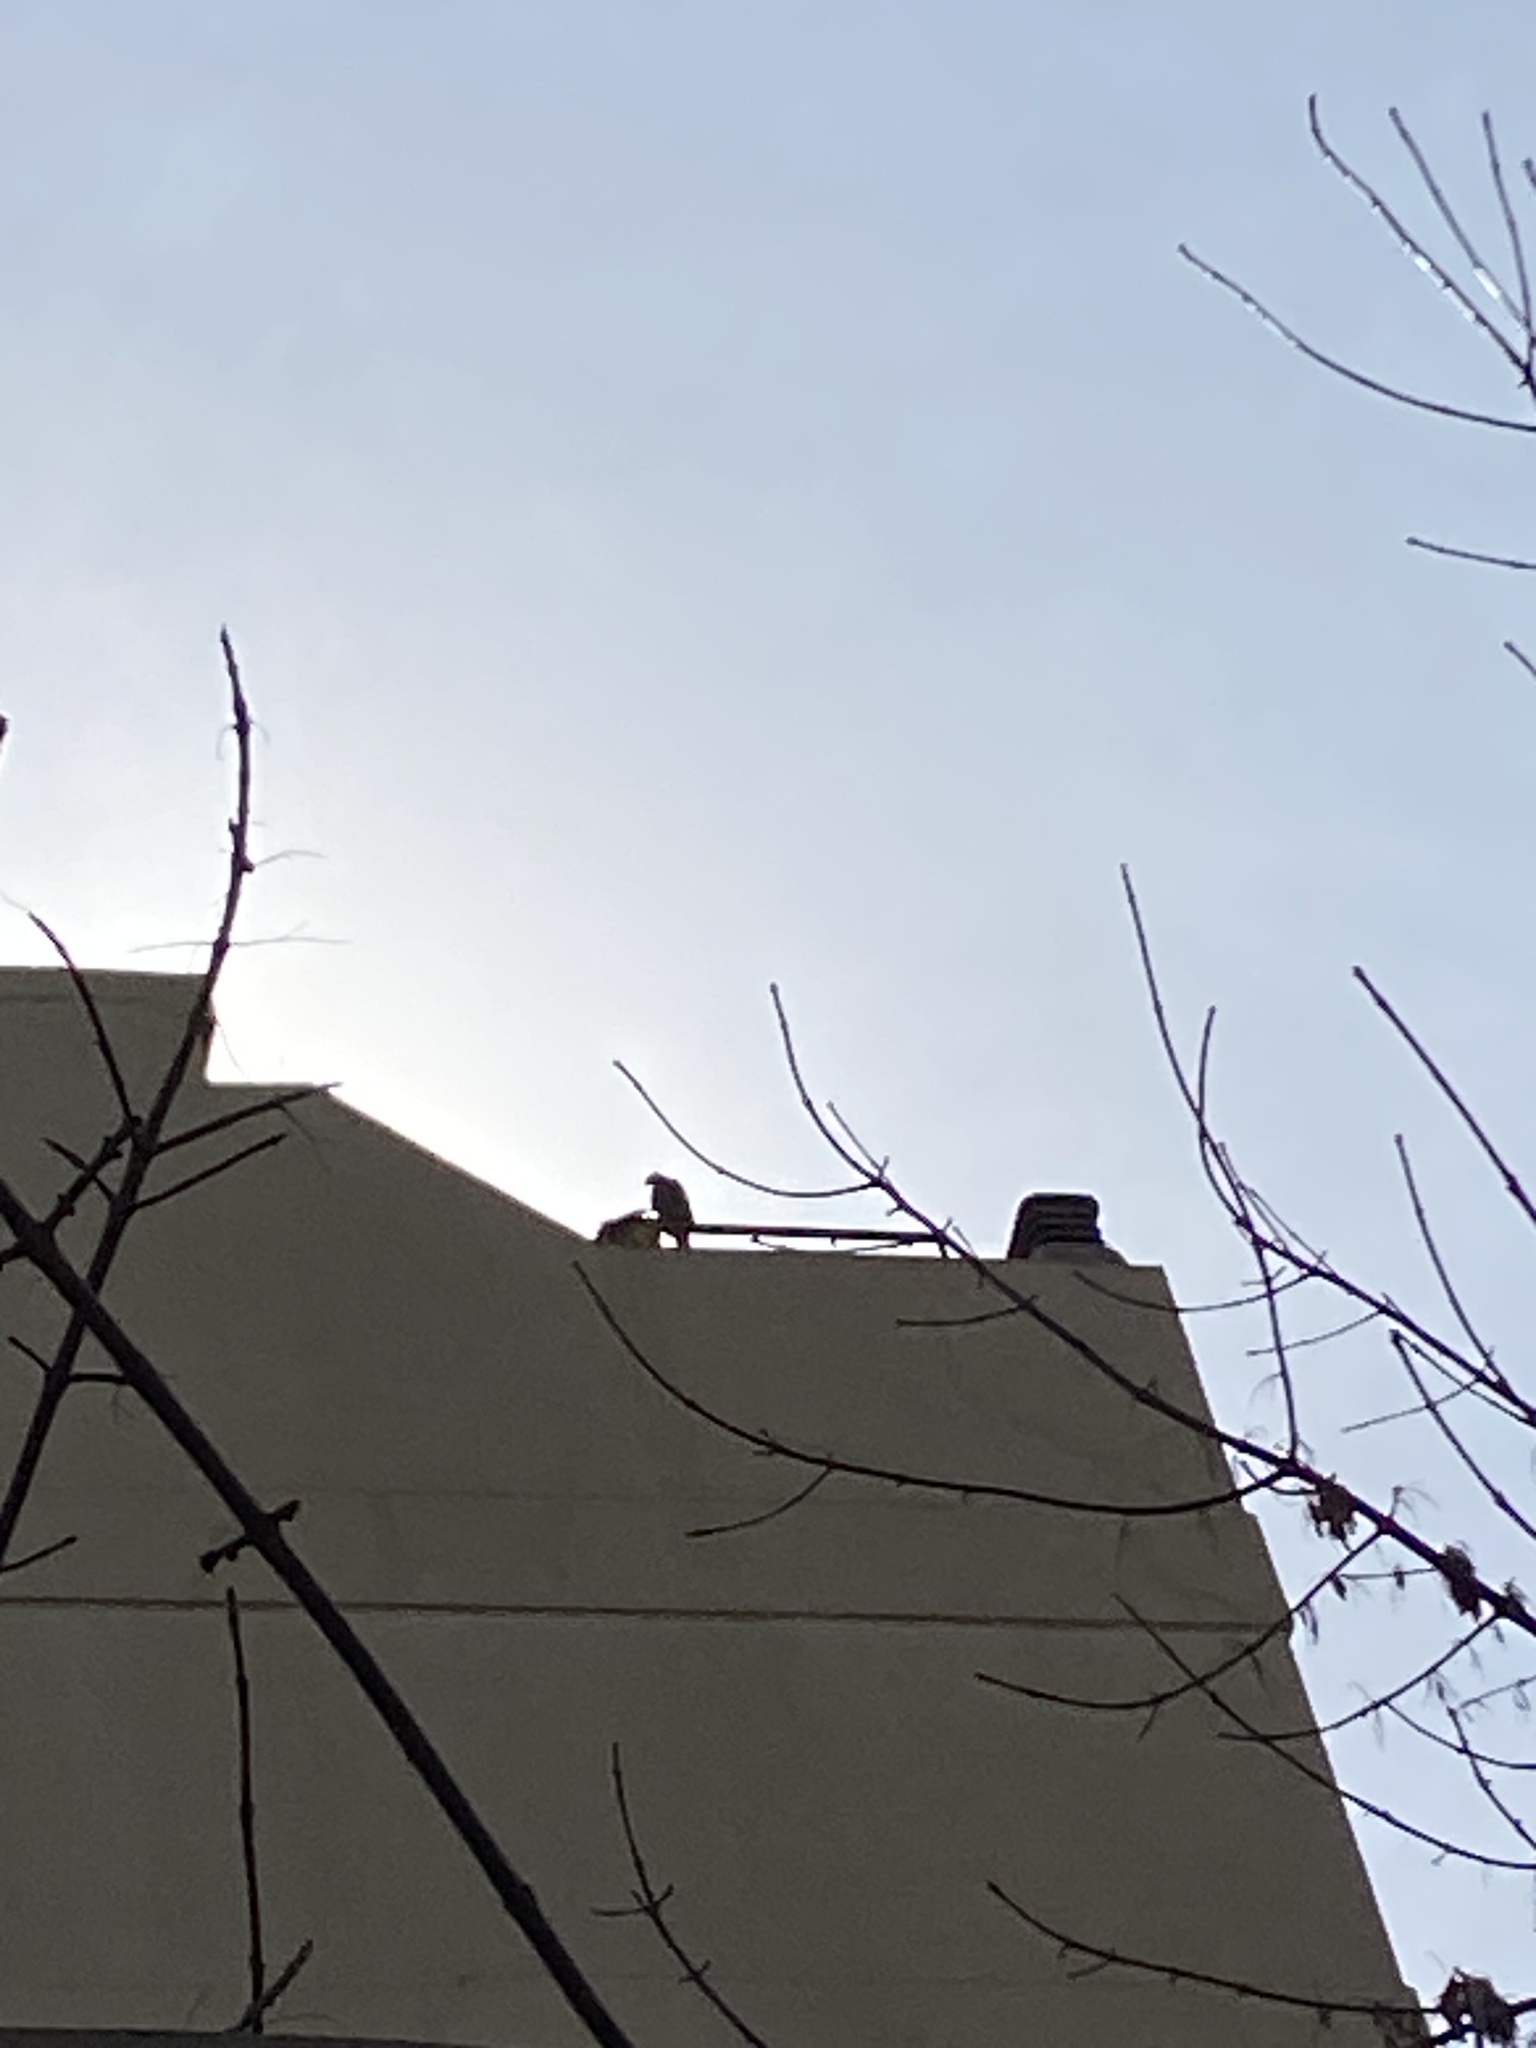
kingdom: Animalia
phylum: Chordata
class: Aves
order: Accipitriformes
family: Accipitridae
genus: Parabuteo
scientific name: Parabuteo unicinctus
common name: Harris's hawk
